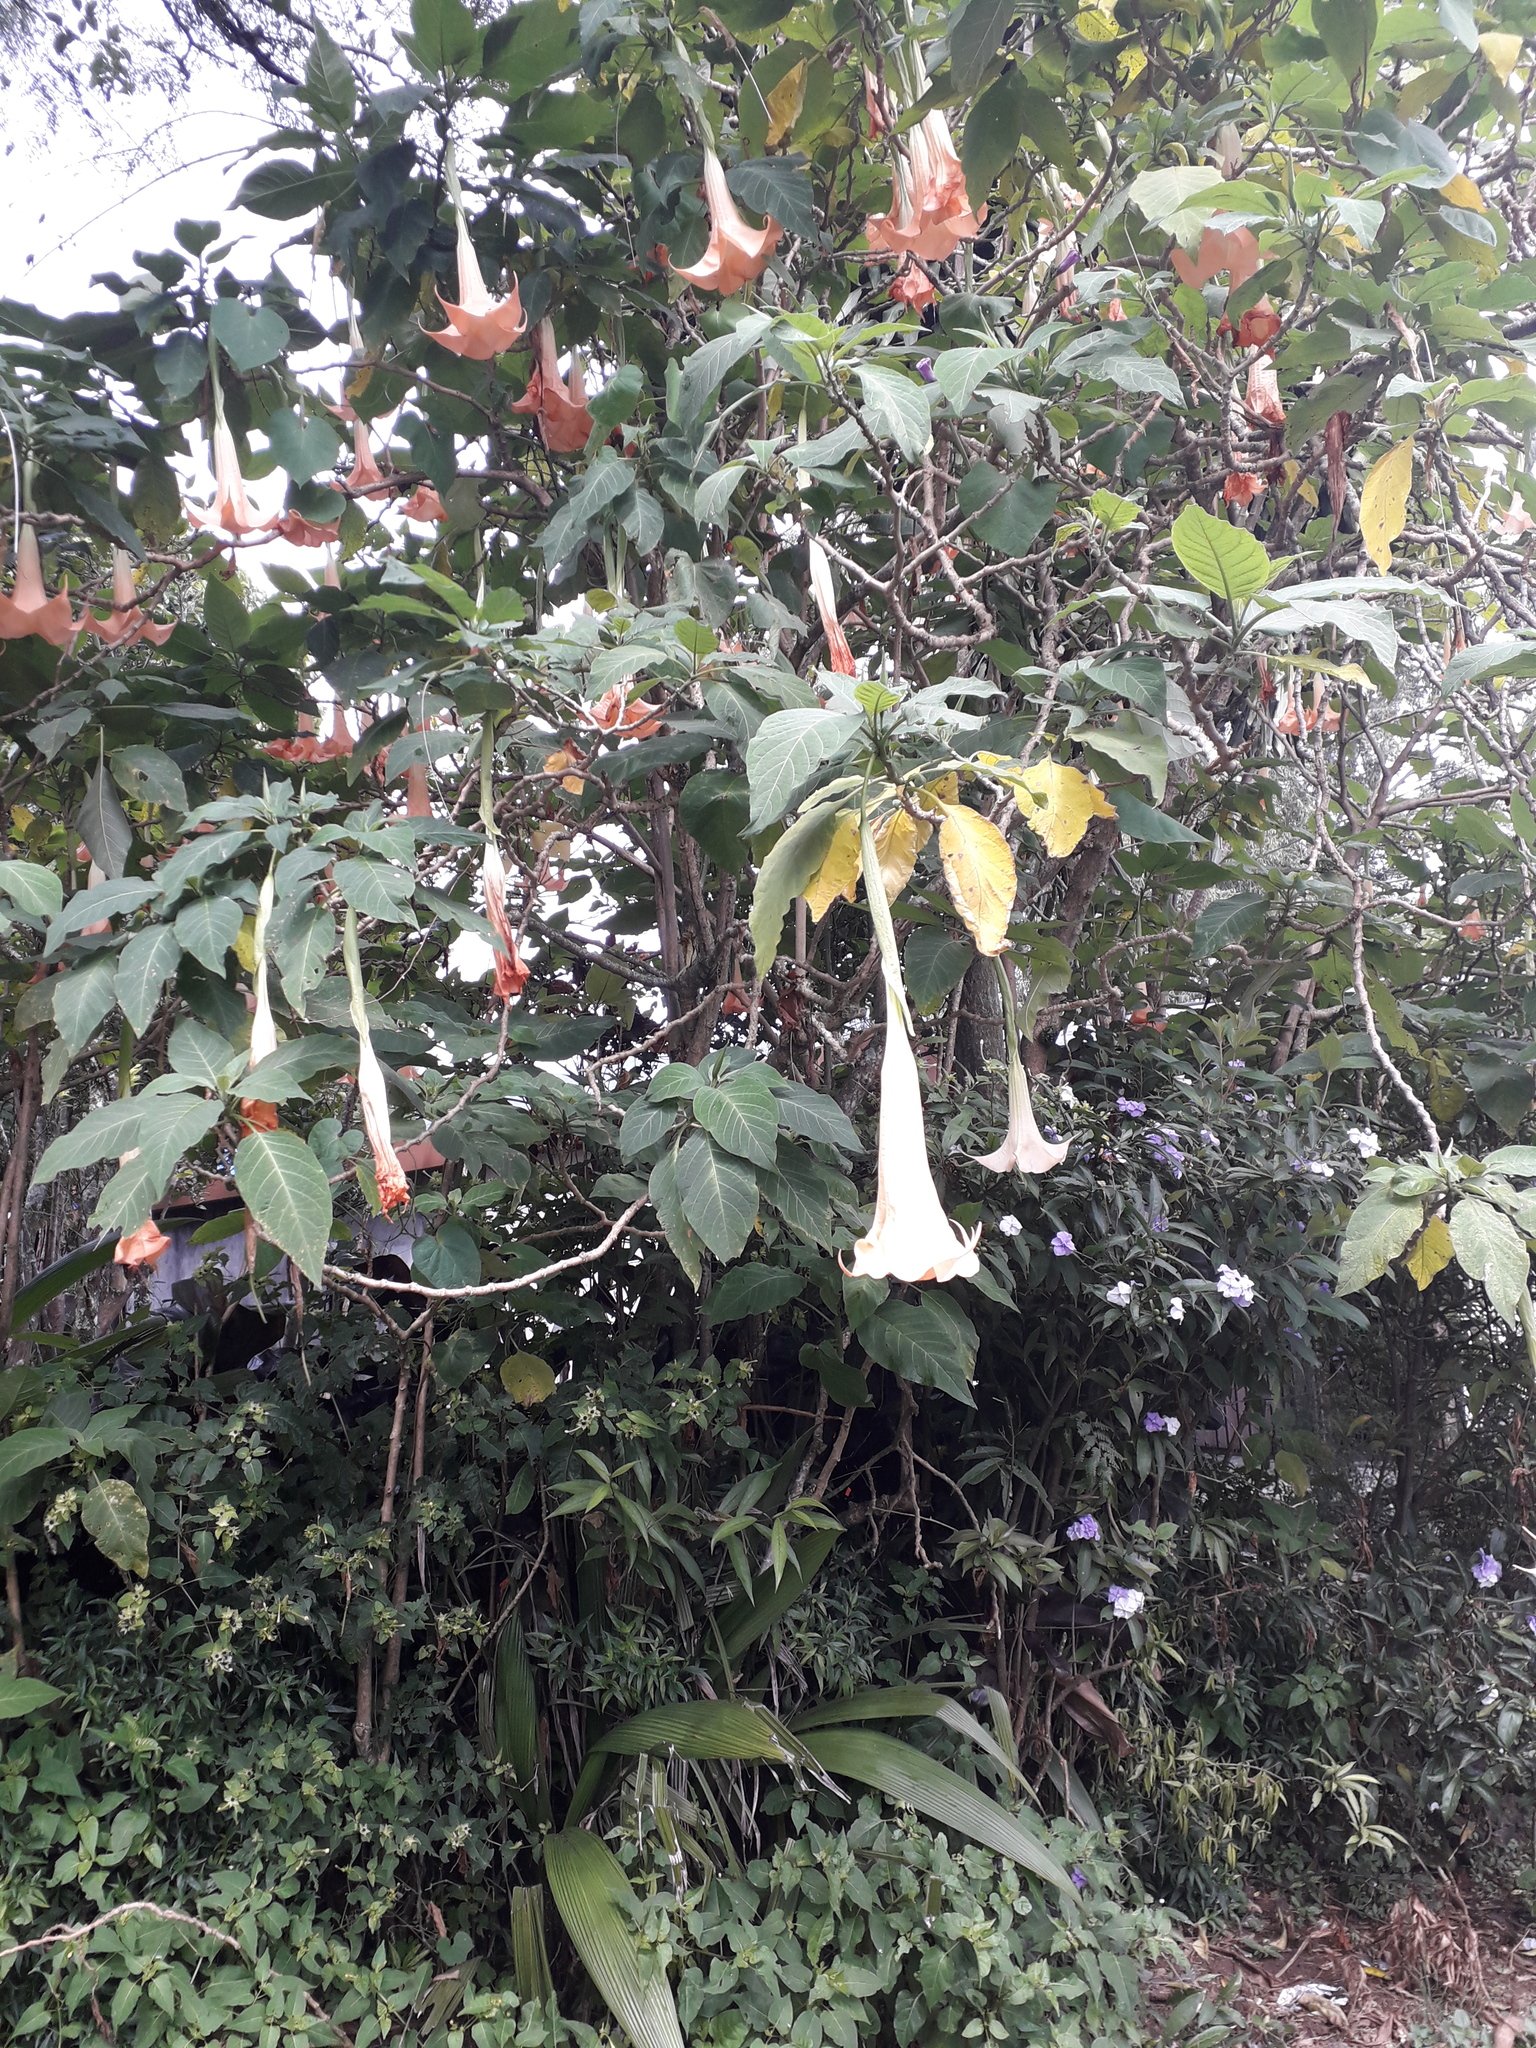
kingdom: Plantae
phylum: Tracheophyta
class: Magnoliopsida
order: Solanales
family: Solanaceae
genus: Brugmansia
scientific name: Brugmansia arborea
